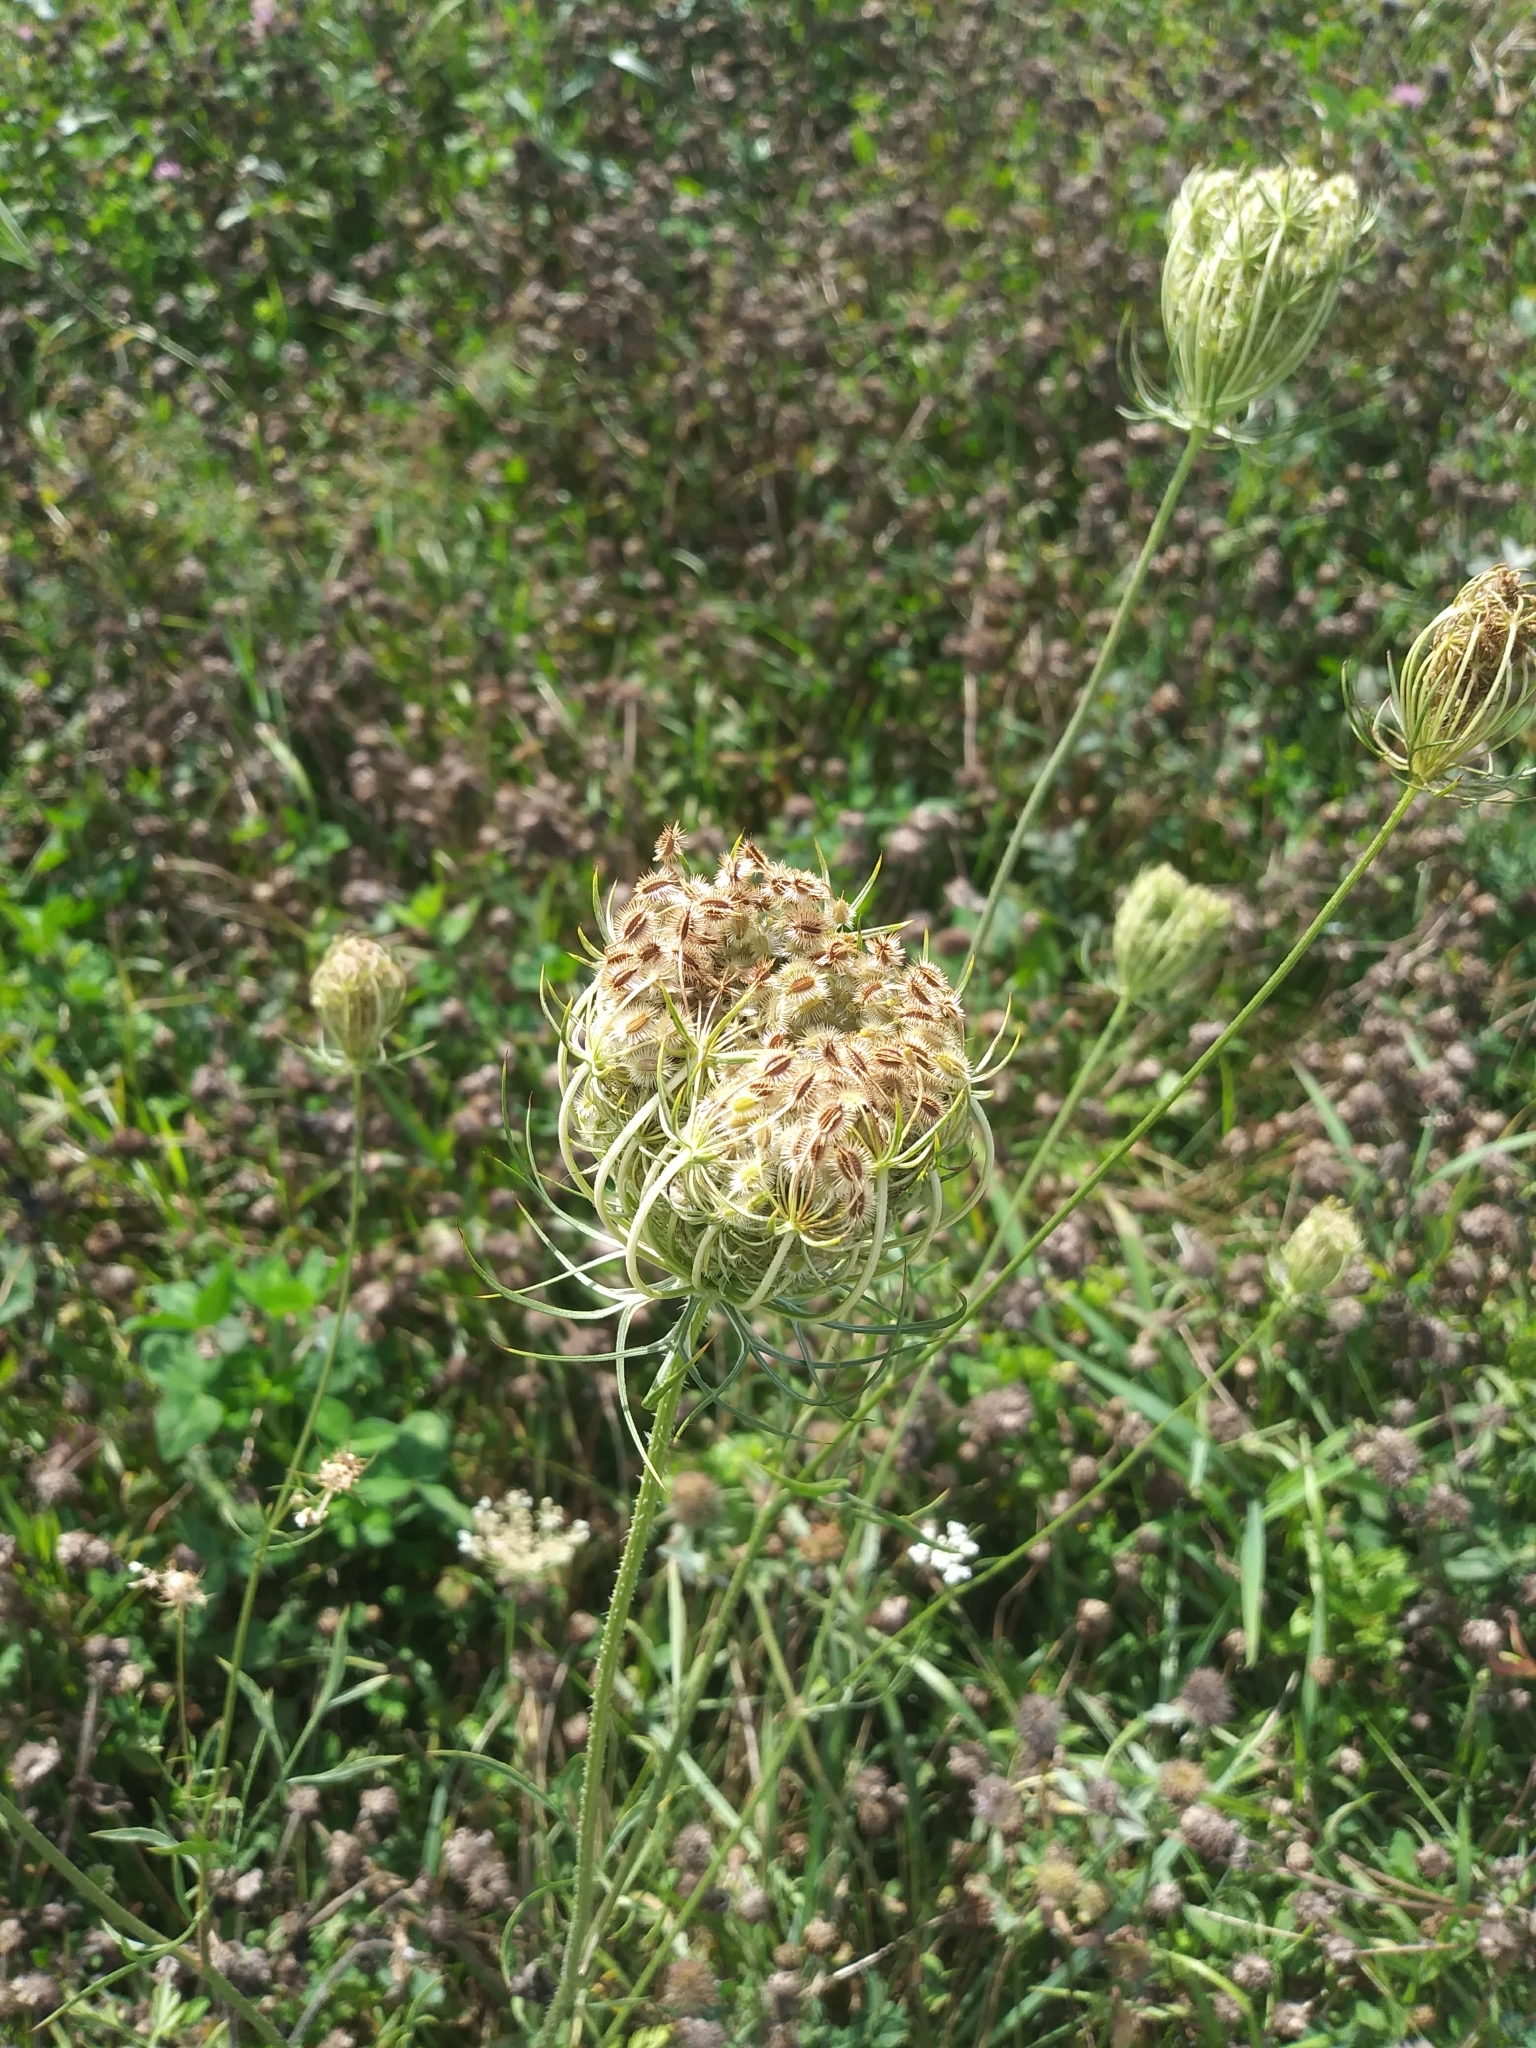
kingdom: Plantae
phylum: Tracheophyta
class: Magnoliopsida
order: Apiales
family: Apiaceae
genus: Daucus
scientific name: Daucus carota
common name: Wild carrot
